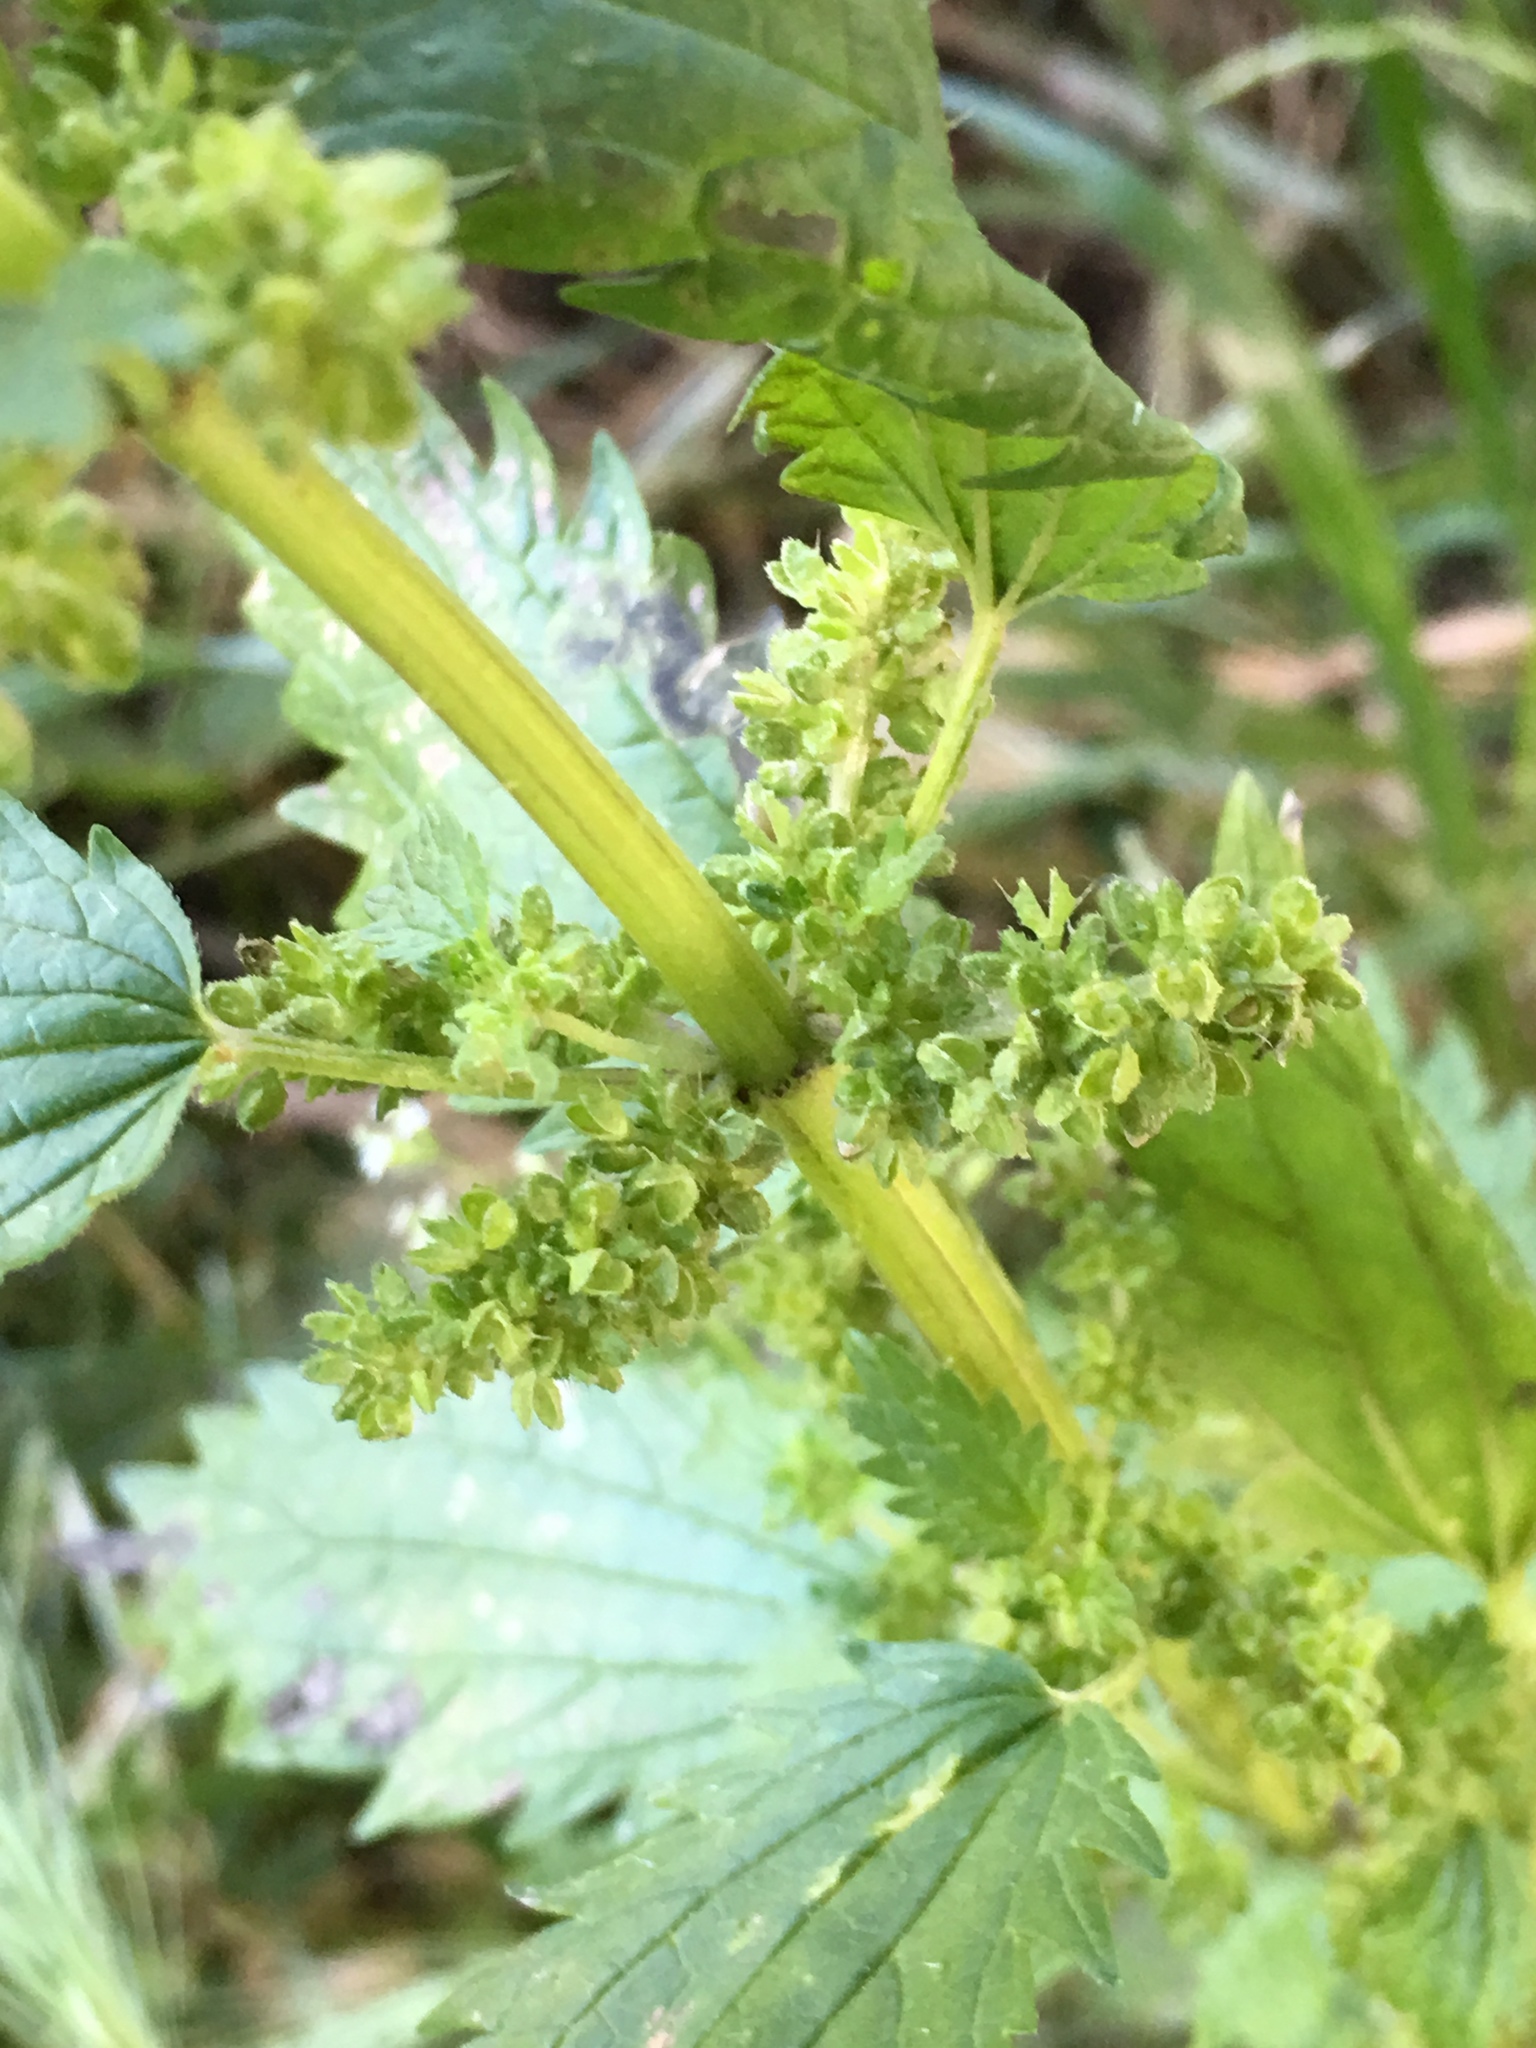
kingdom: Plantae
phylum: Tracheophyta
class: Magnoliopsida
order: Rosales
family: Urticaceae
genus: Urtica
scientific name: Urtica urens
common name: Dwarf nettle
